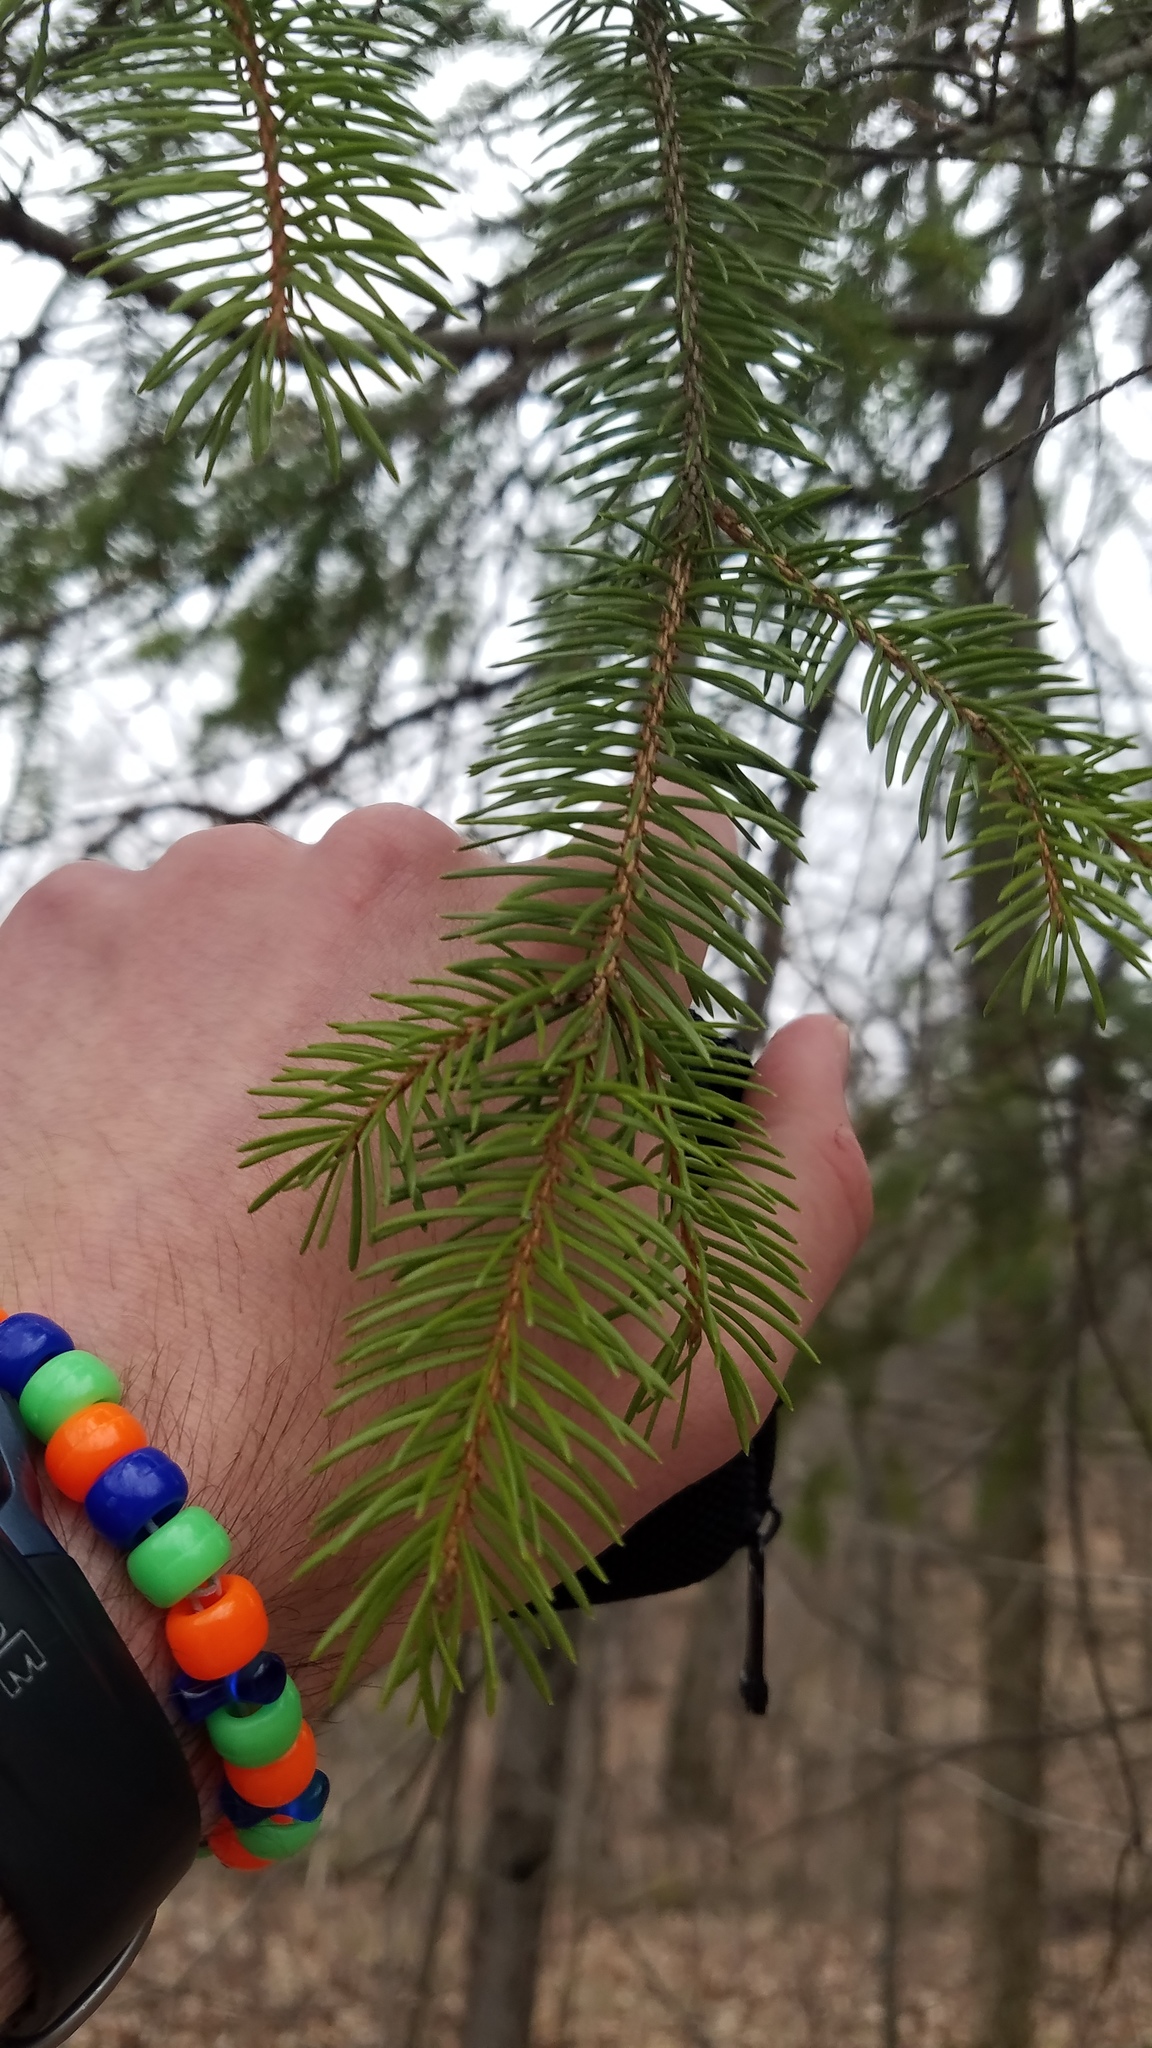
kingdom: Plantae
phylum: Tracheophyta
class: Pinopsida
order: Pinales
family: Pinaceae
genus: Picea
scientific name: Picea abies
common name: Norway spruce
